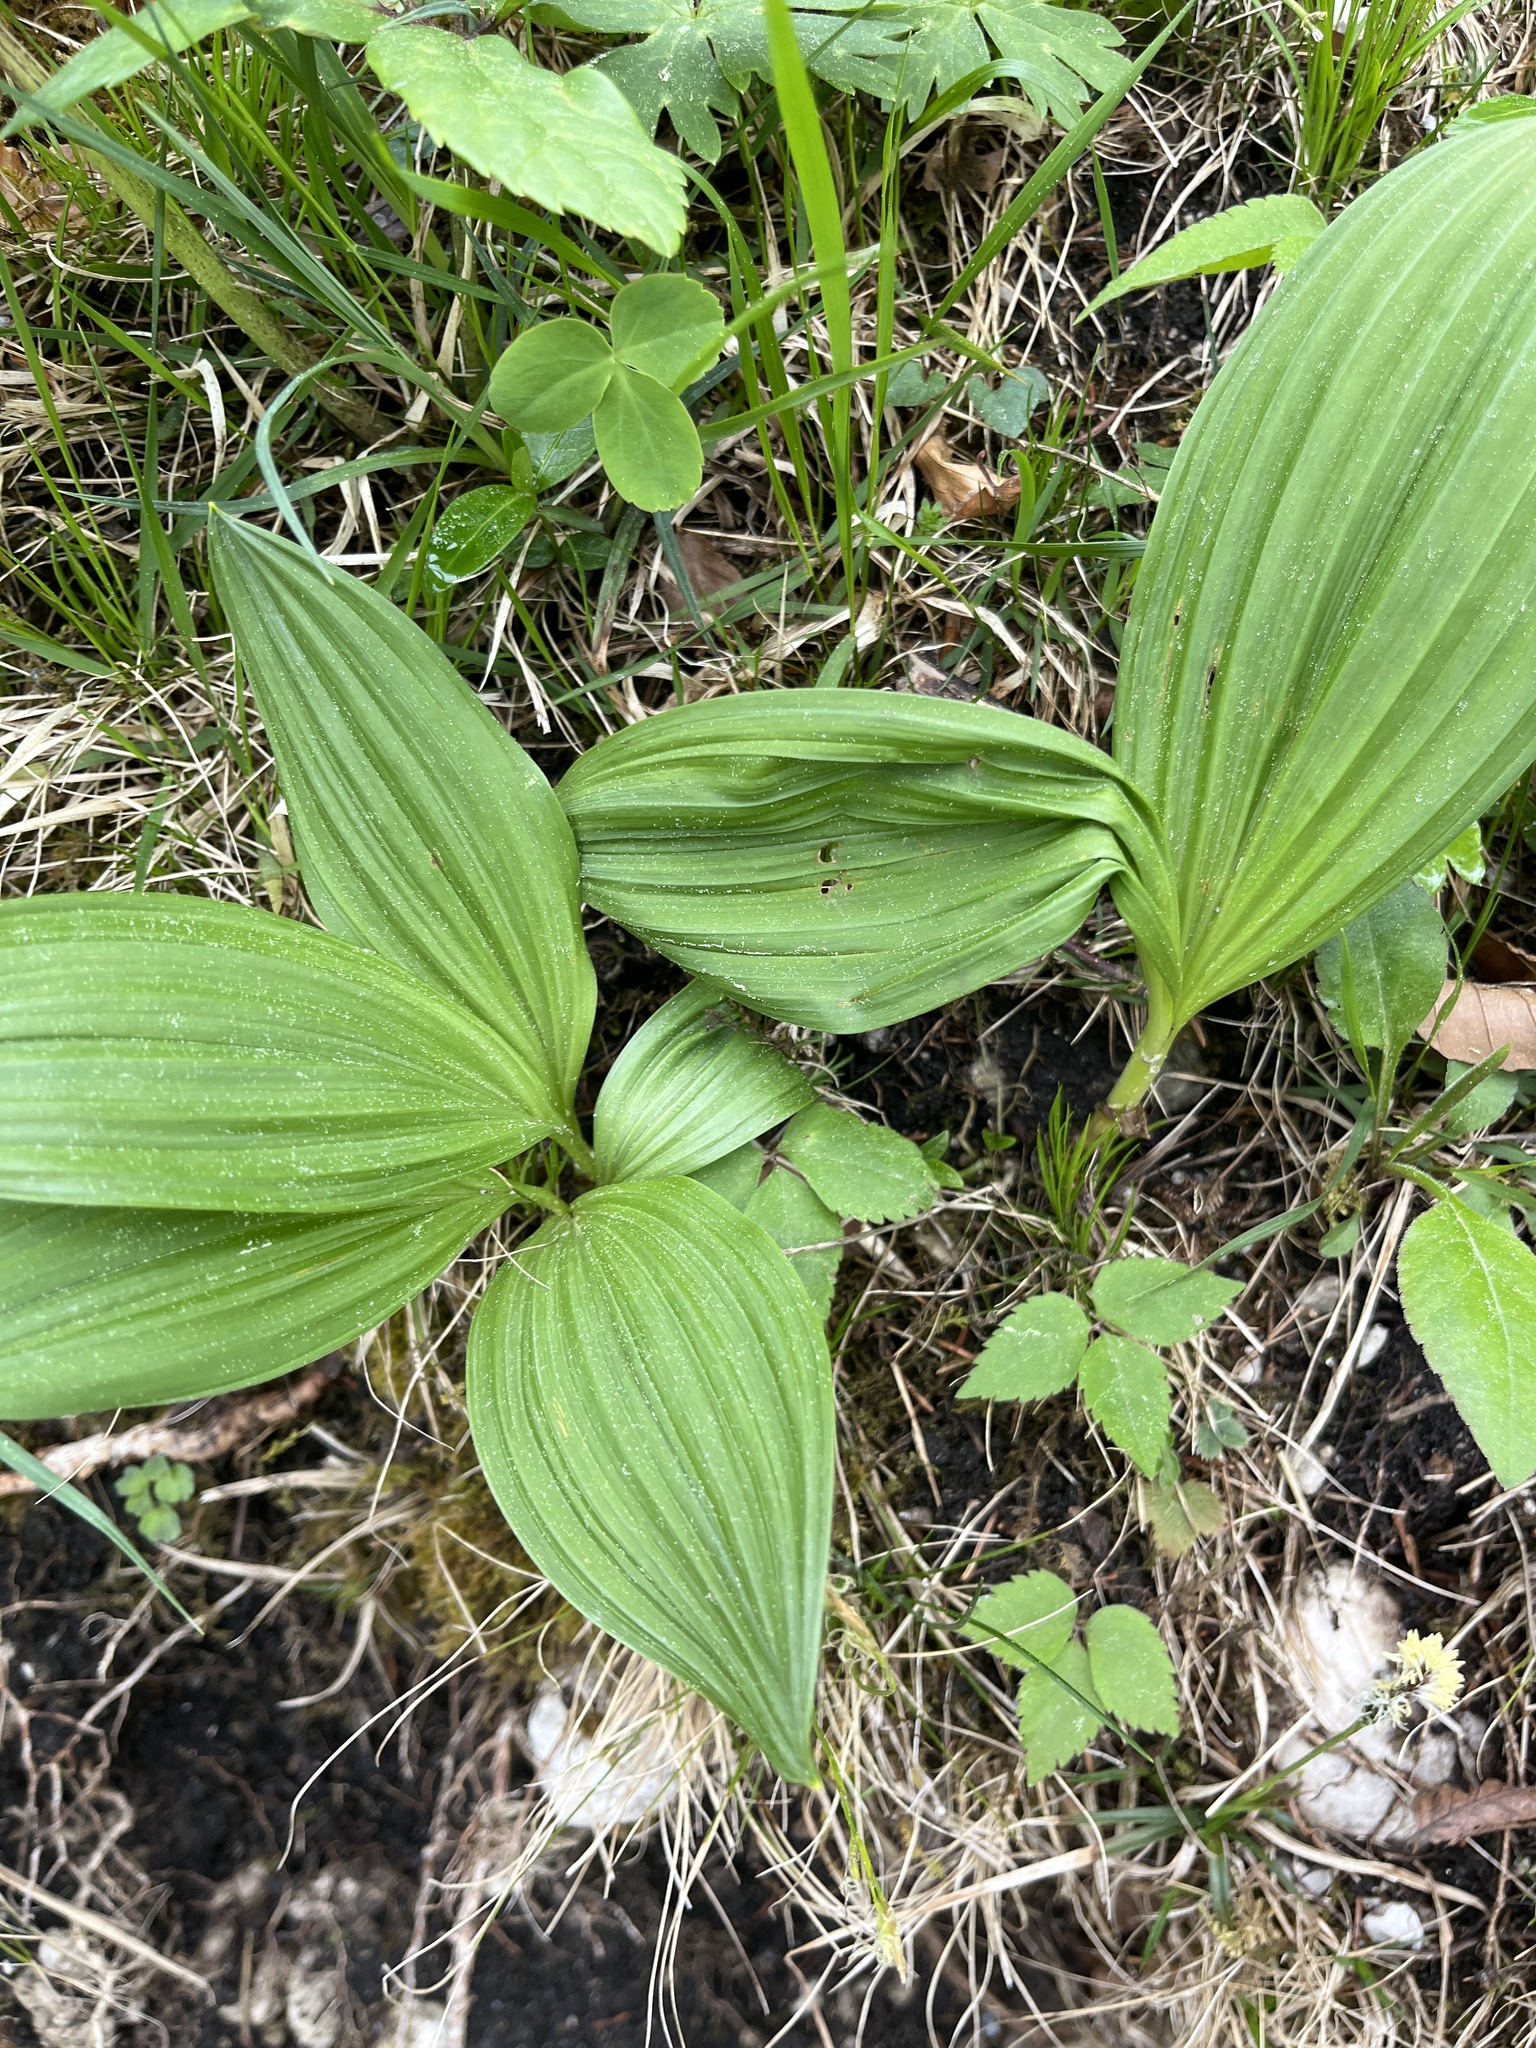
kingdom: Plantae
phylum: Tracheophyta
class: Liliopsida
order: Asparagales
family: Orchidaceae
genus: Cypripedium
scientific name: Cypripedium calceolus
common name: Lady's-slipper
